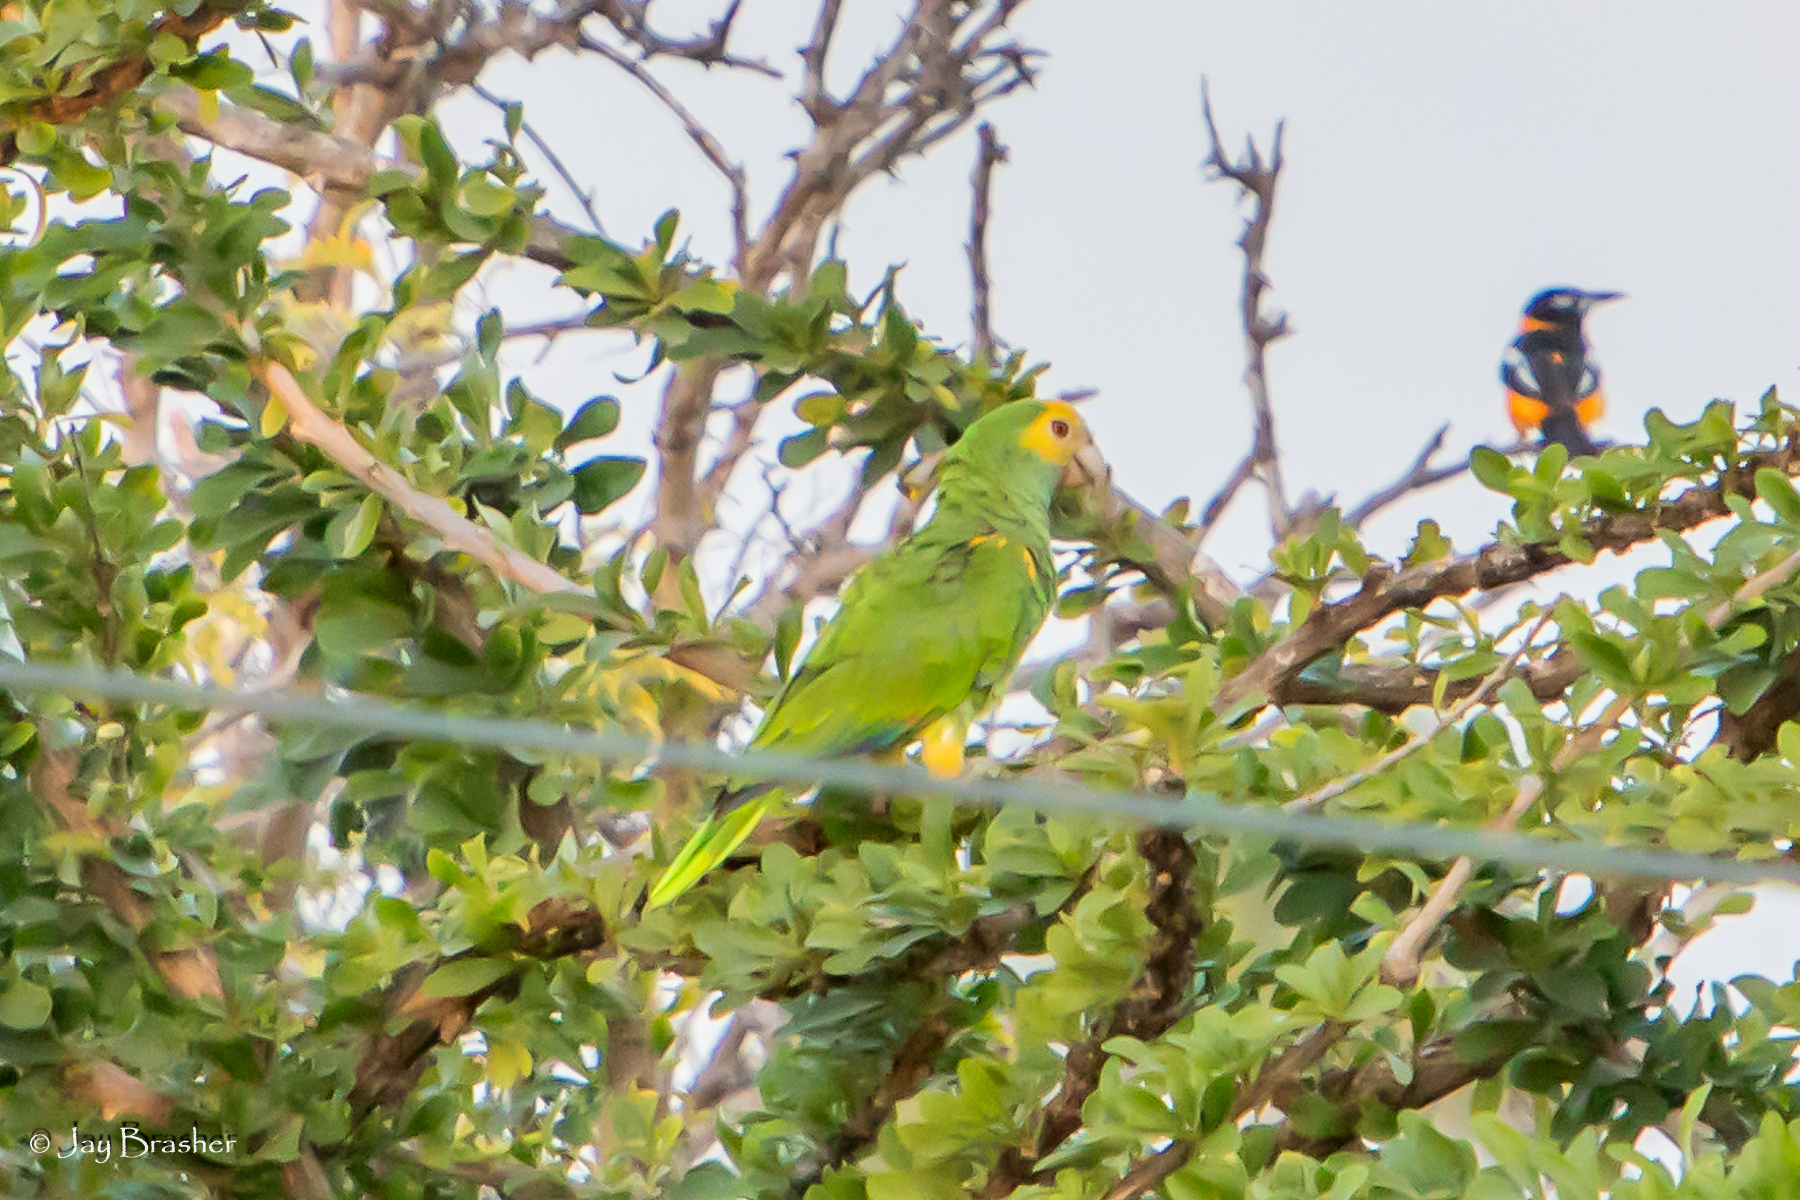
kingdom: Animalia
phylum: Chordata
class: Aves
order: Psittaciformes
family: Psittacidae
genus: Amazona
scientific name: Amazona barbadensis
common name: Yellow-shouldered amazon
